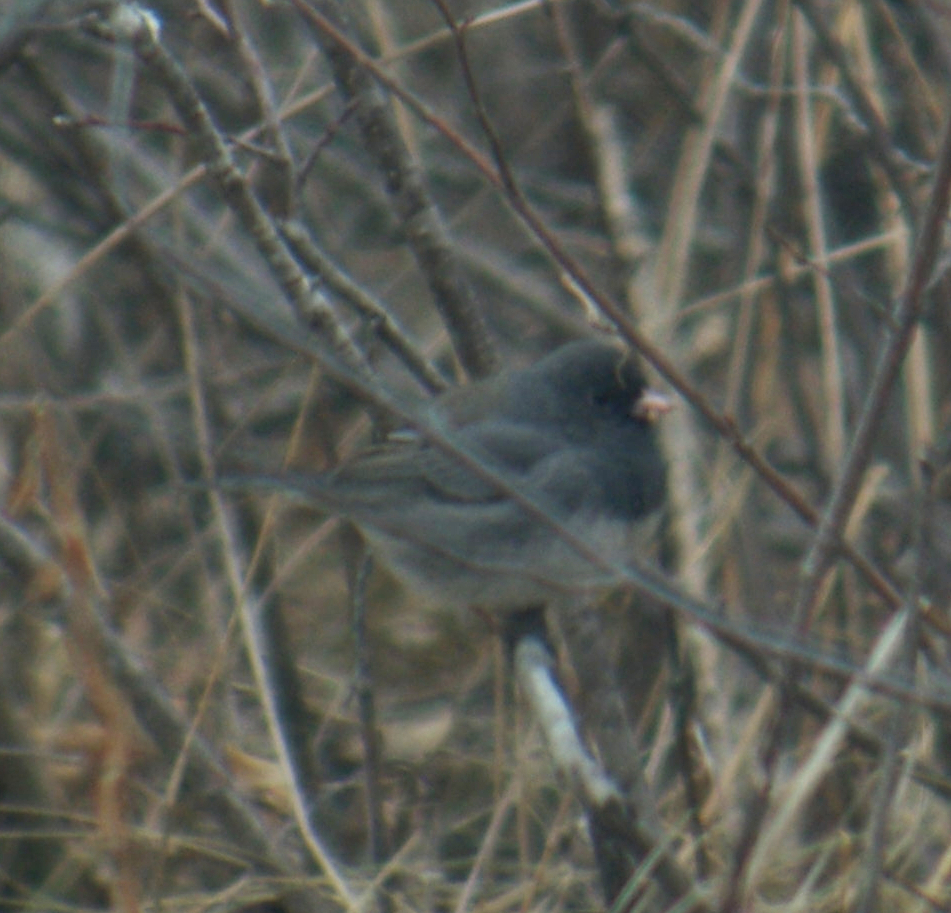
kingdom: Animalia
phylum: Chordata
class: Aves
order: Passeriformes
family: Passerellidae
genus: Junco
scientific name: Junco hyemalis
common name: Dark-eyed junco
